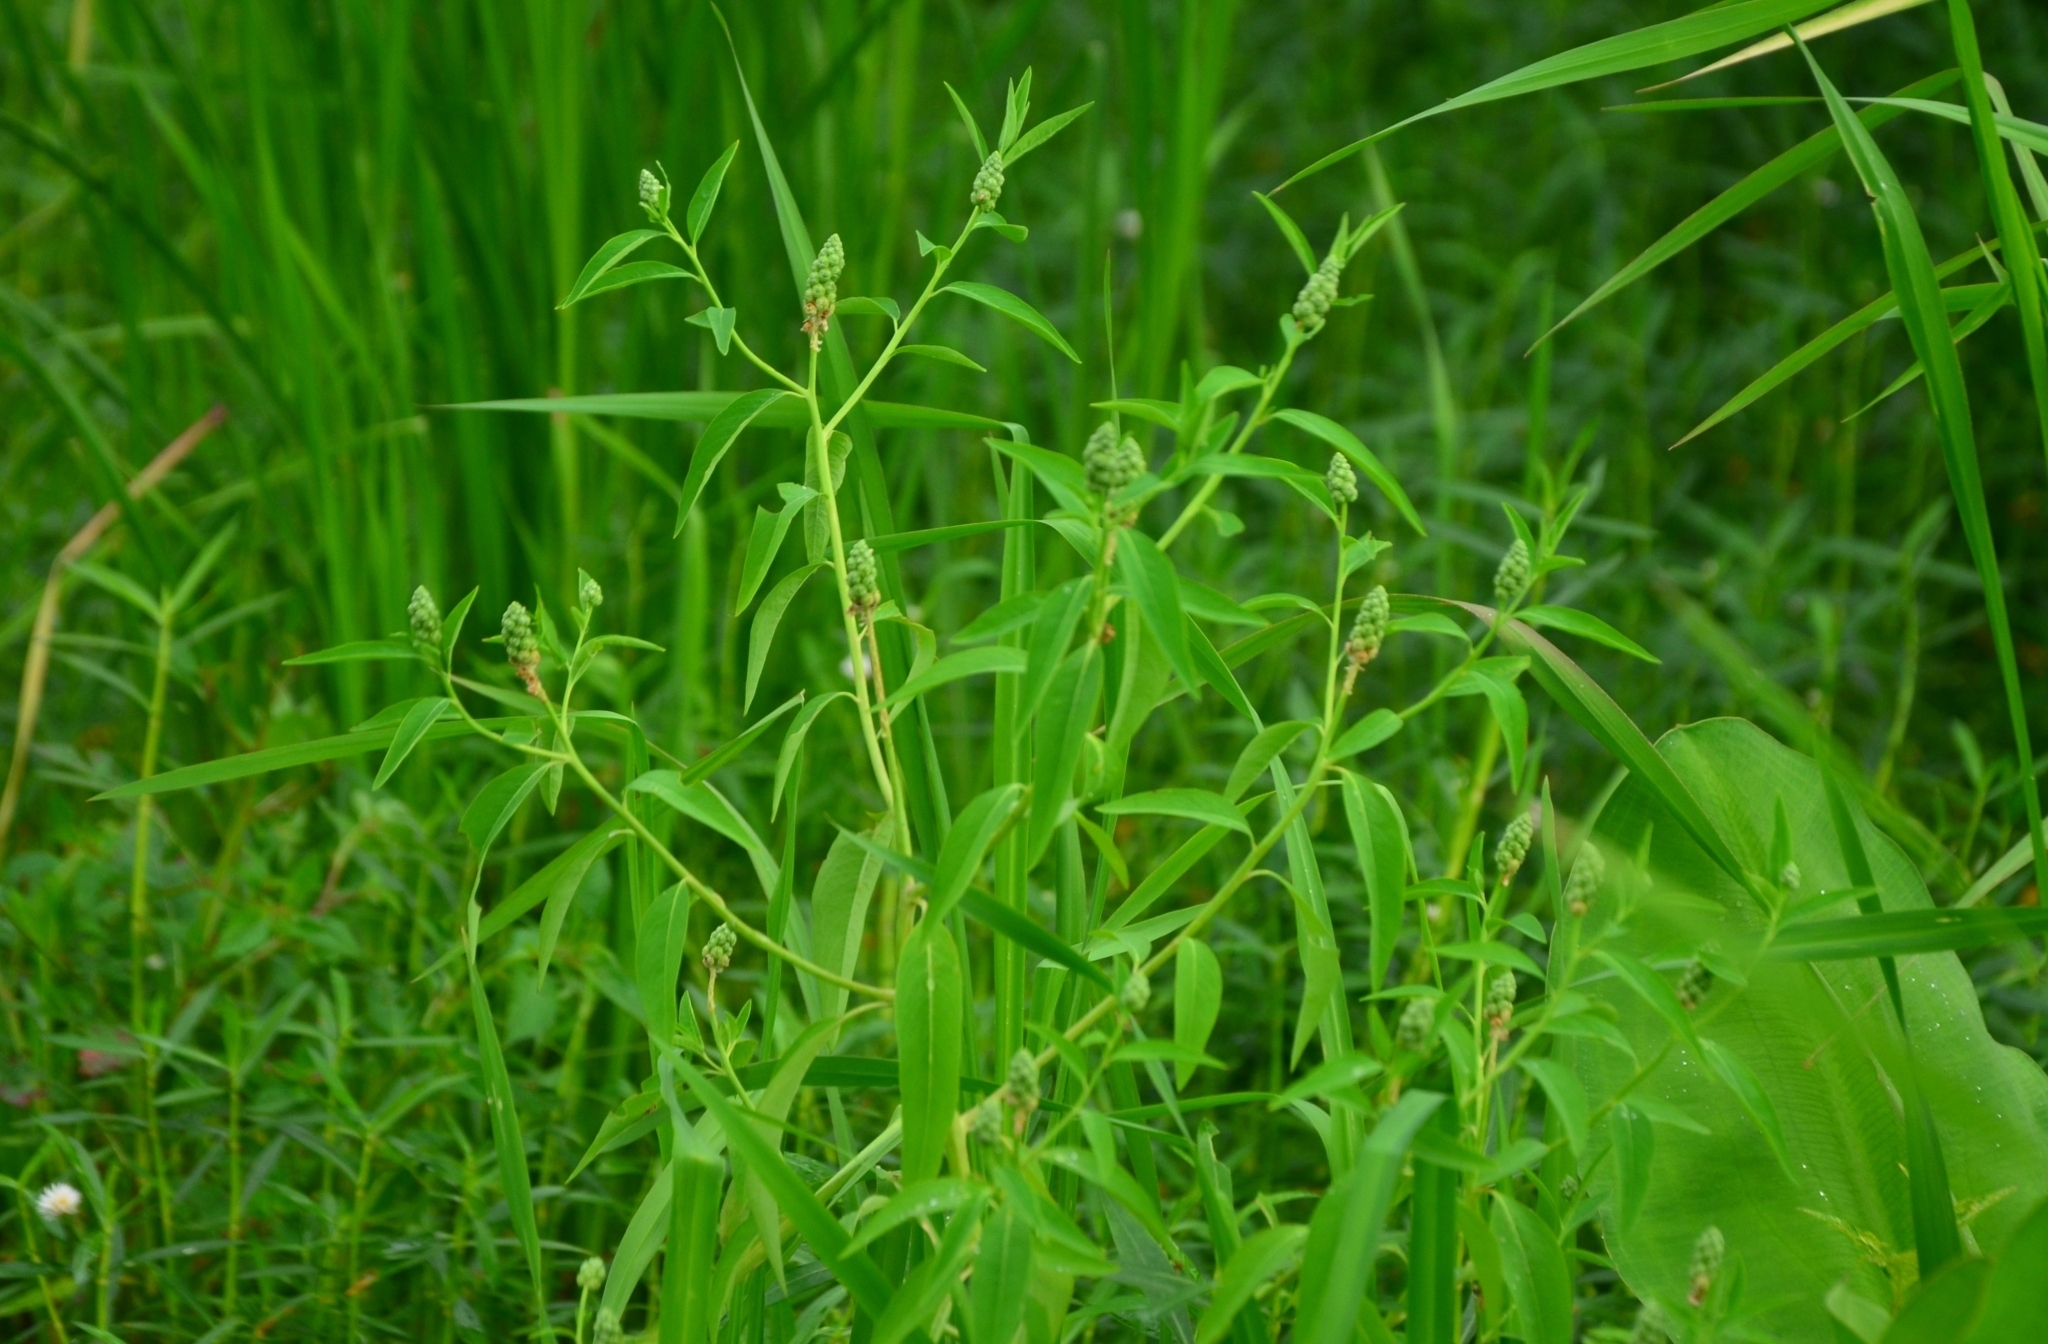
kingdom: Plantae
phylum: Tracheophyta
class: Magnoliopsida
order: Solanales
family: Sphenocleaceae
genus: Sphenoclea
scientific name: Sphenoclea zeylanica
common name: Chickenspike
